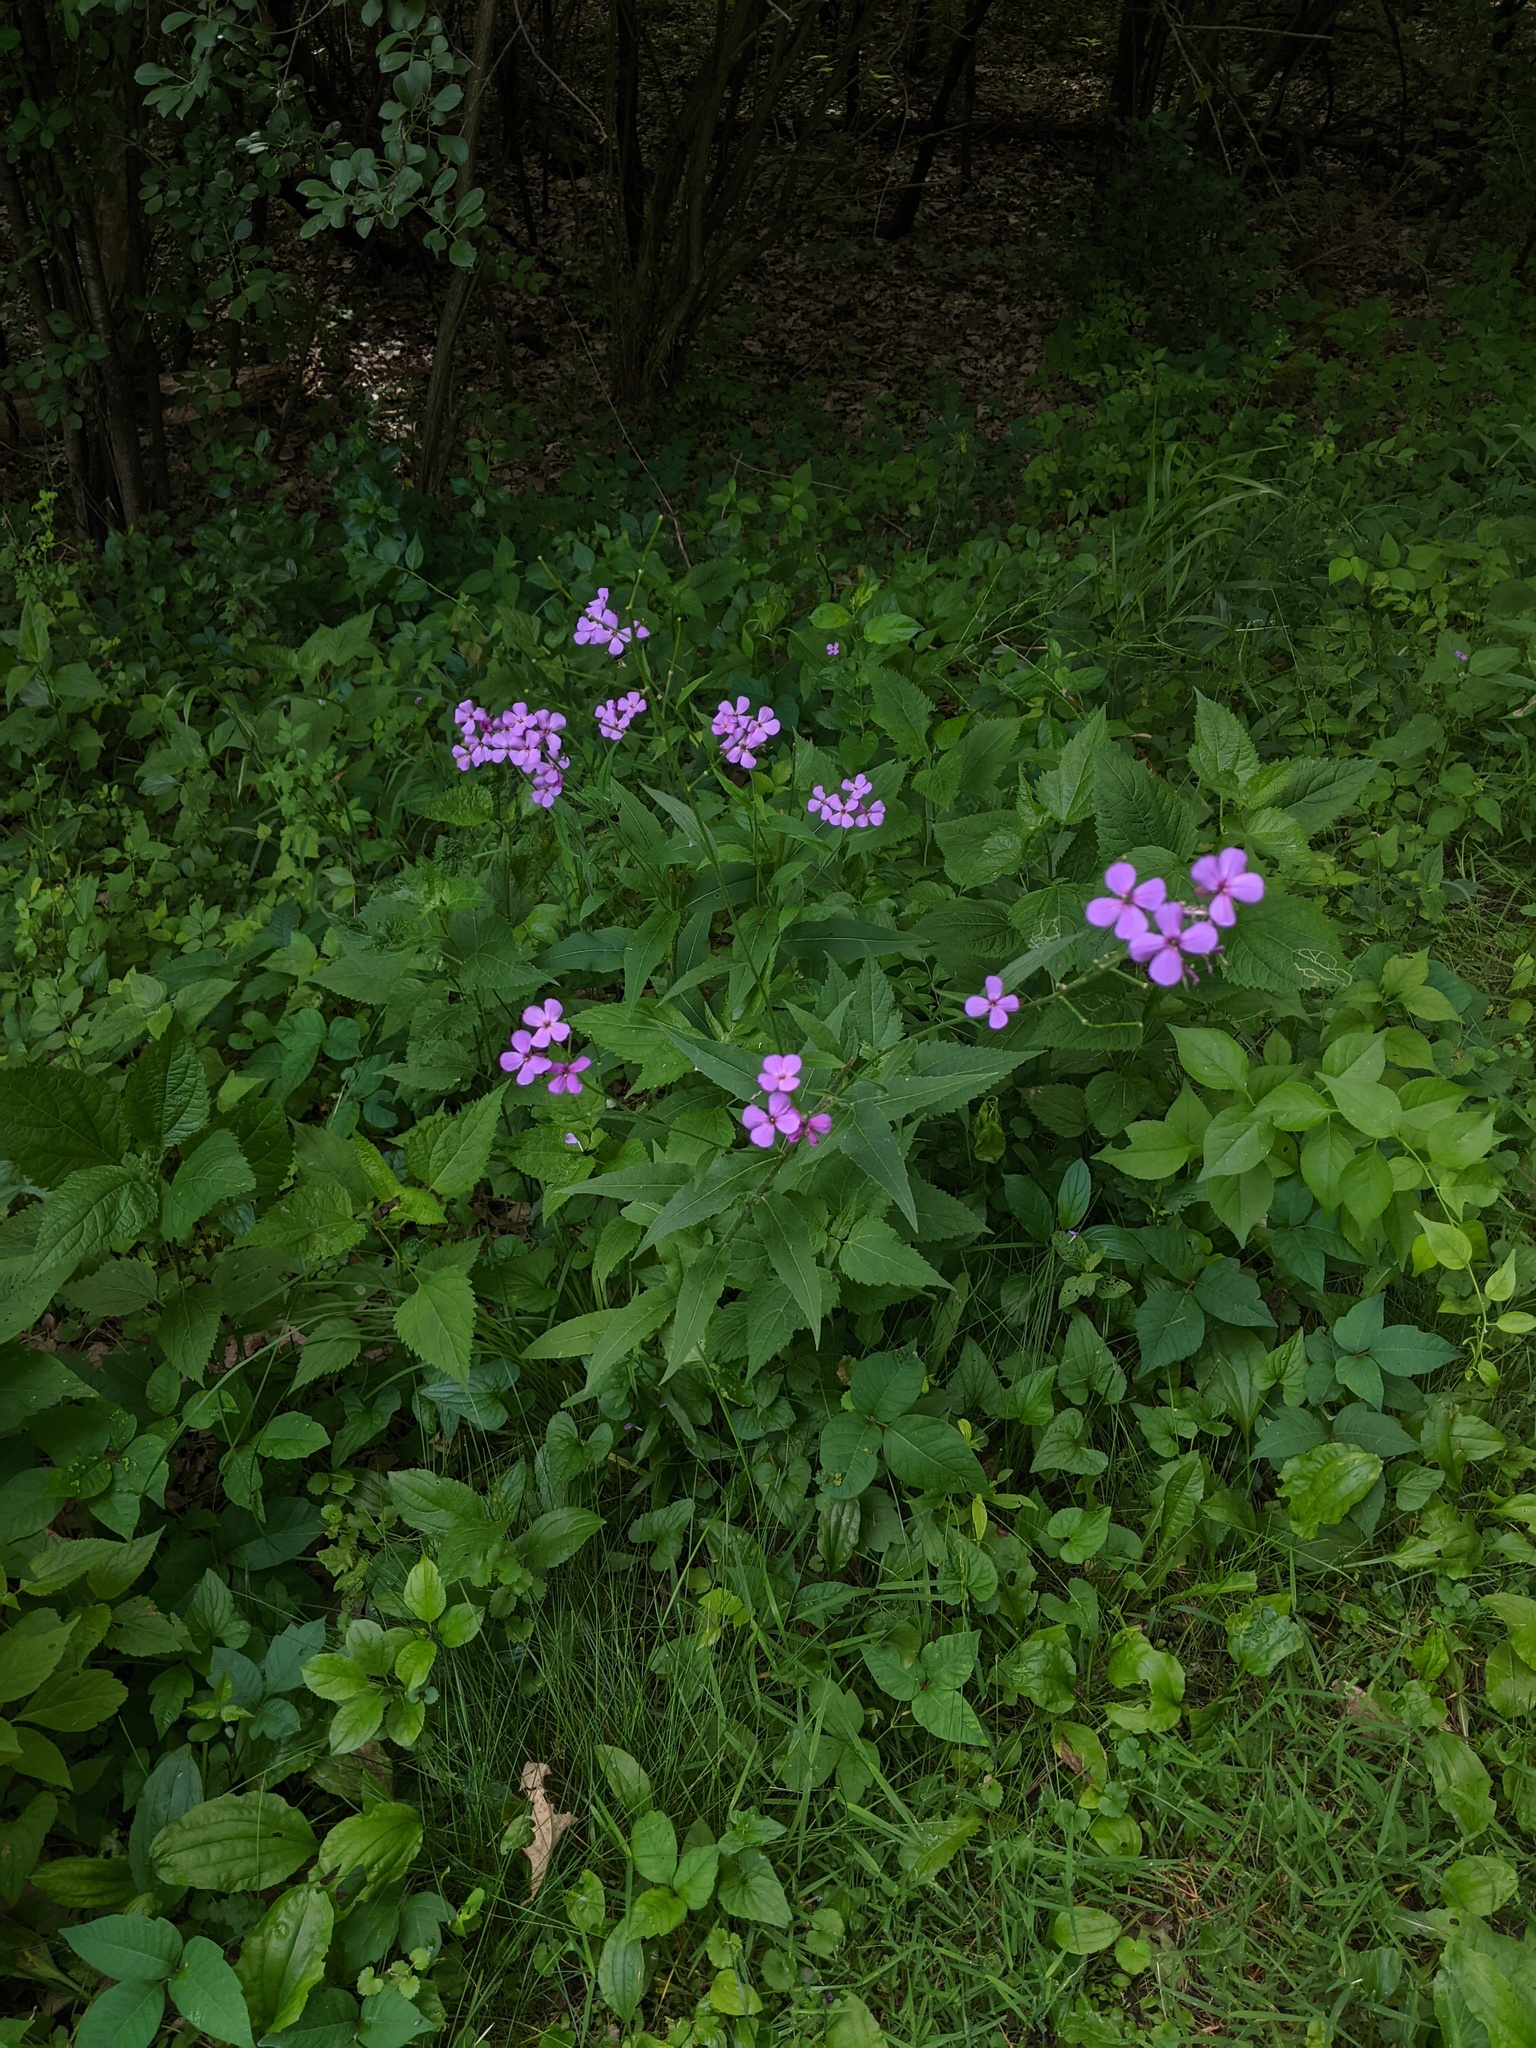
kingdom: Plantae
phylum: Tracheophyta
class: Magnoliopsida
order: Brassicales
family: Brassicaceae
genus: Hesperis
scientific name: Hesperis matronalis
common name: Dame's-violet
